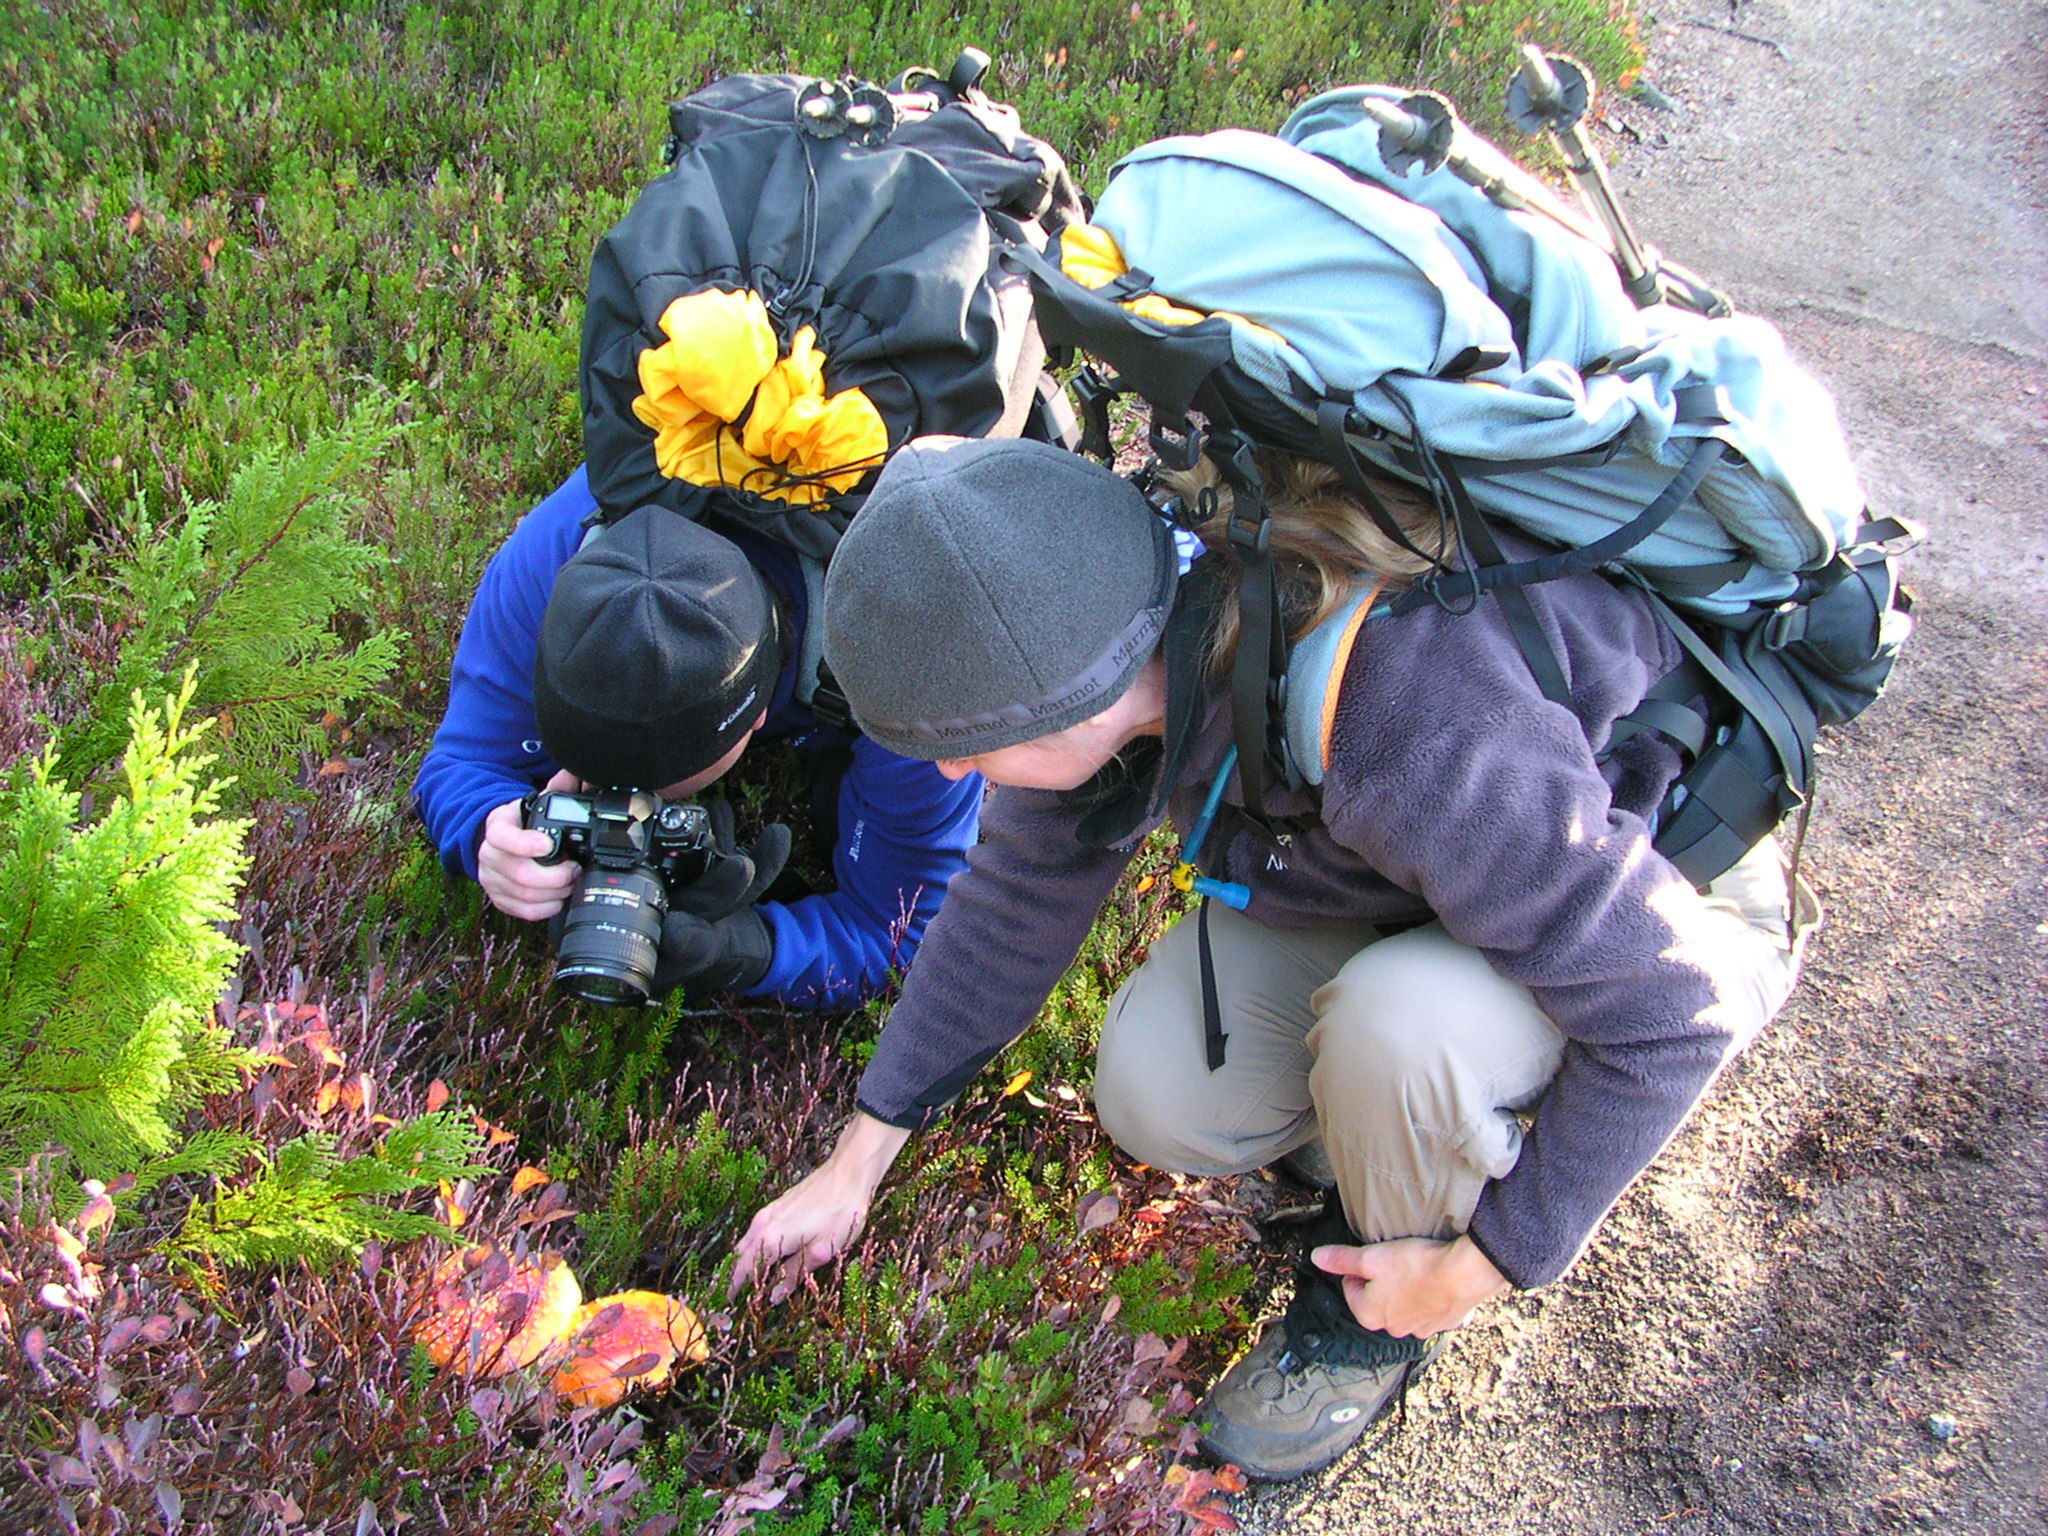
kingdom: Fungi
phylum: Basidiomycota
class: Agaricomycetes
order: Agaricales
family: Amanitaceae
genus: Amanita
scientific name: Amanita muscaria
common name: Fly agaric
